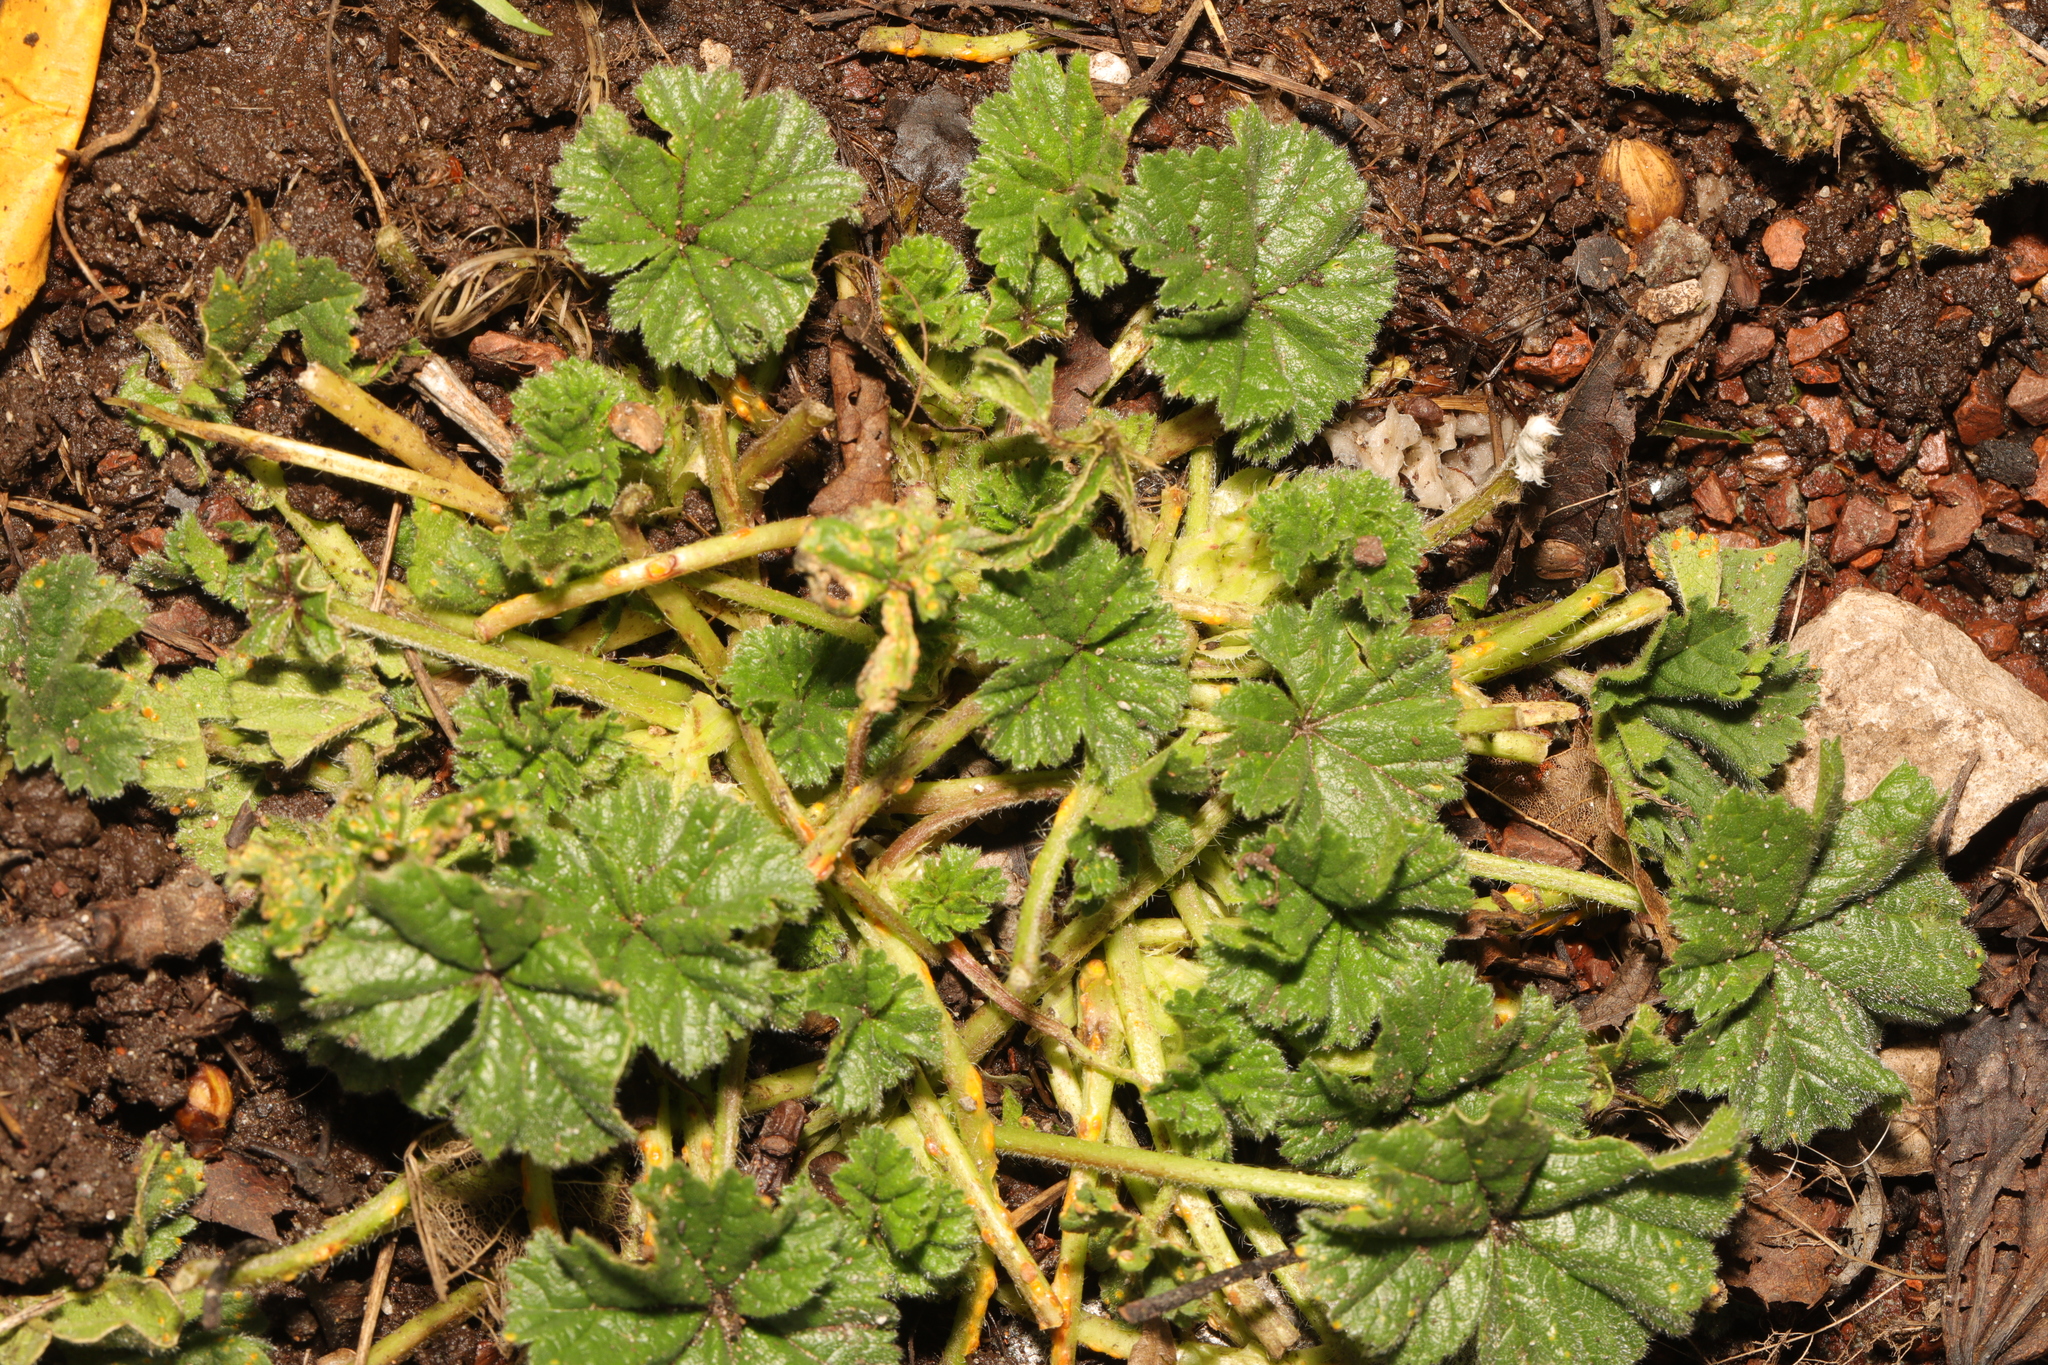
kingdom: Plantae
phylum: Tracheophyta
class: Magnoliopsida
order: Malvales
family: Malvaceae
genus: Malva
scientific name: Malva sylvestris
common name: Common mallow
